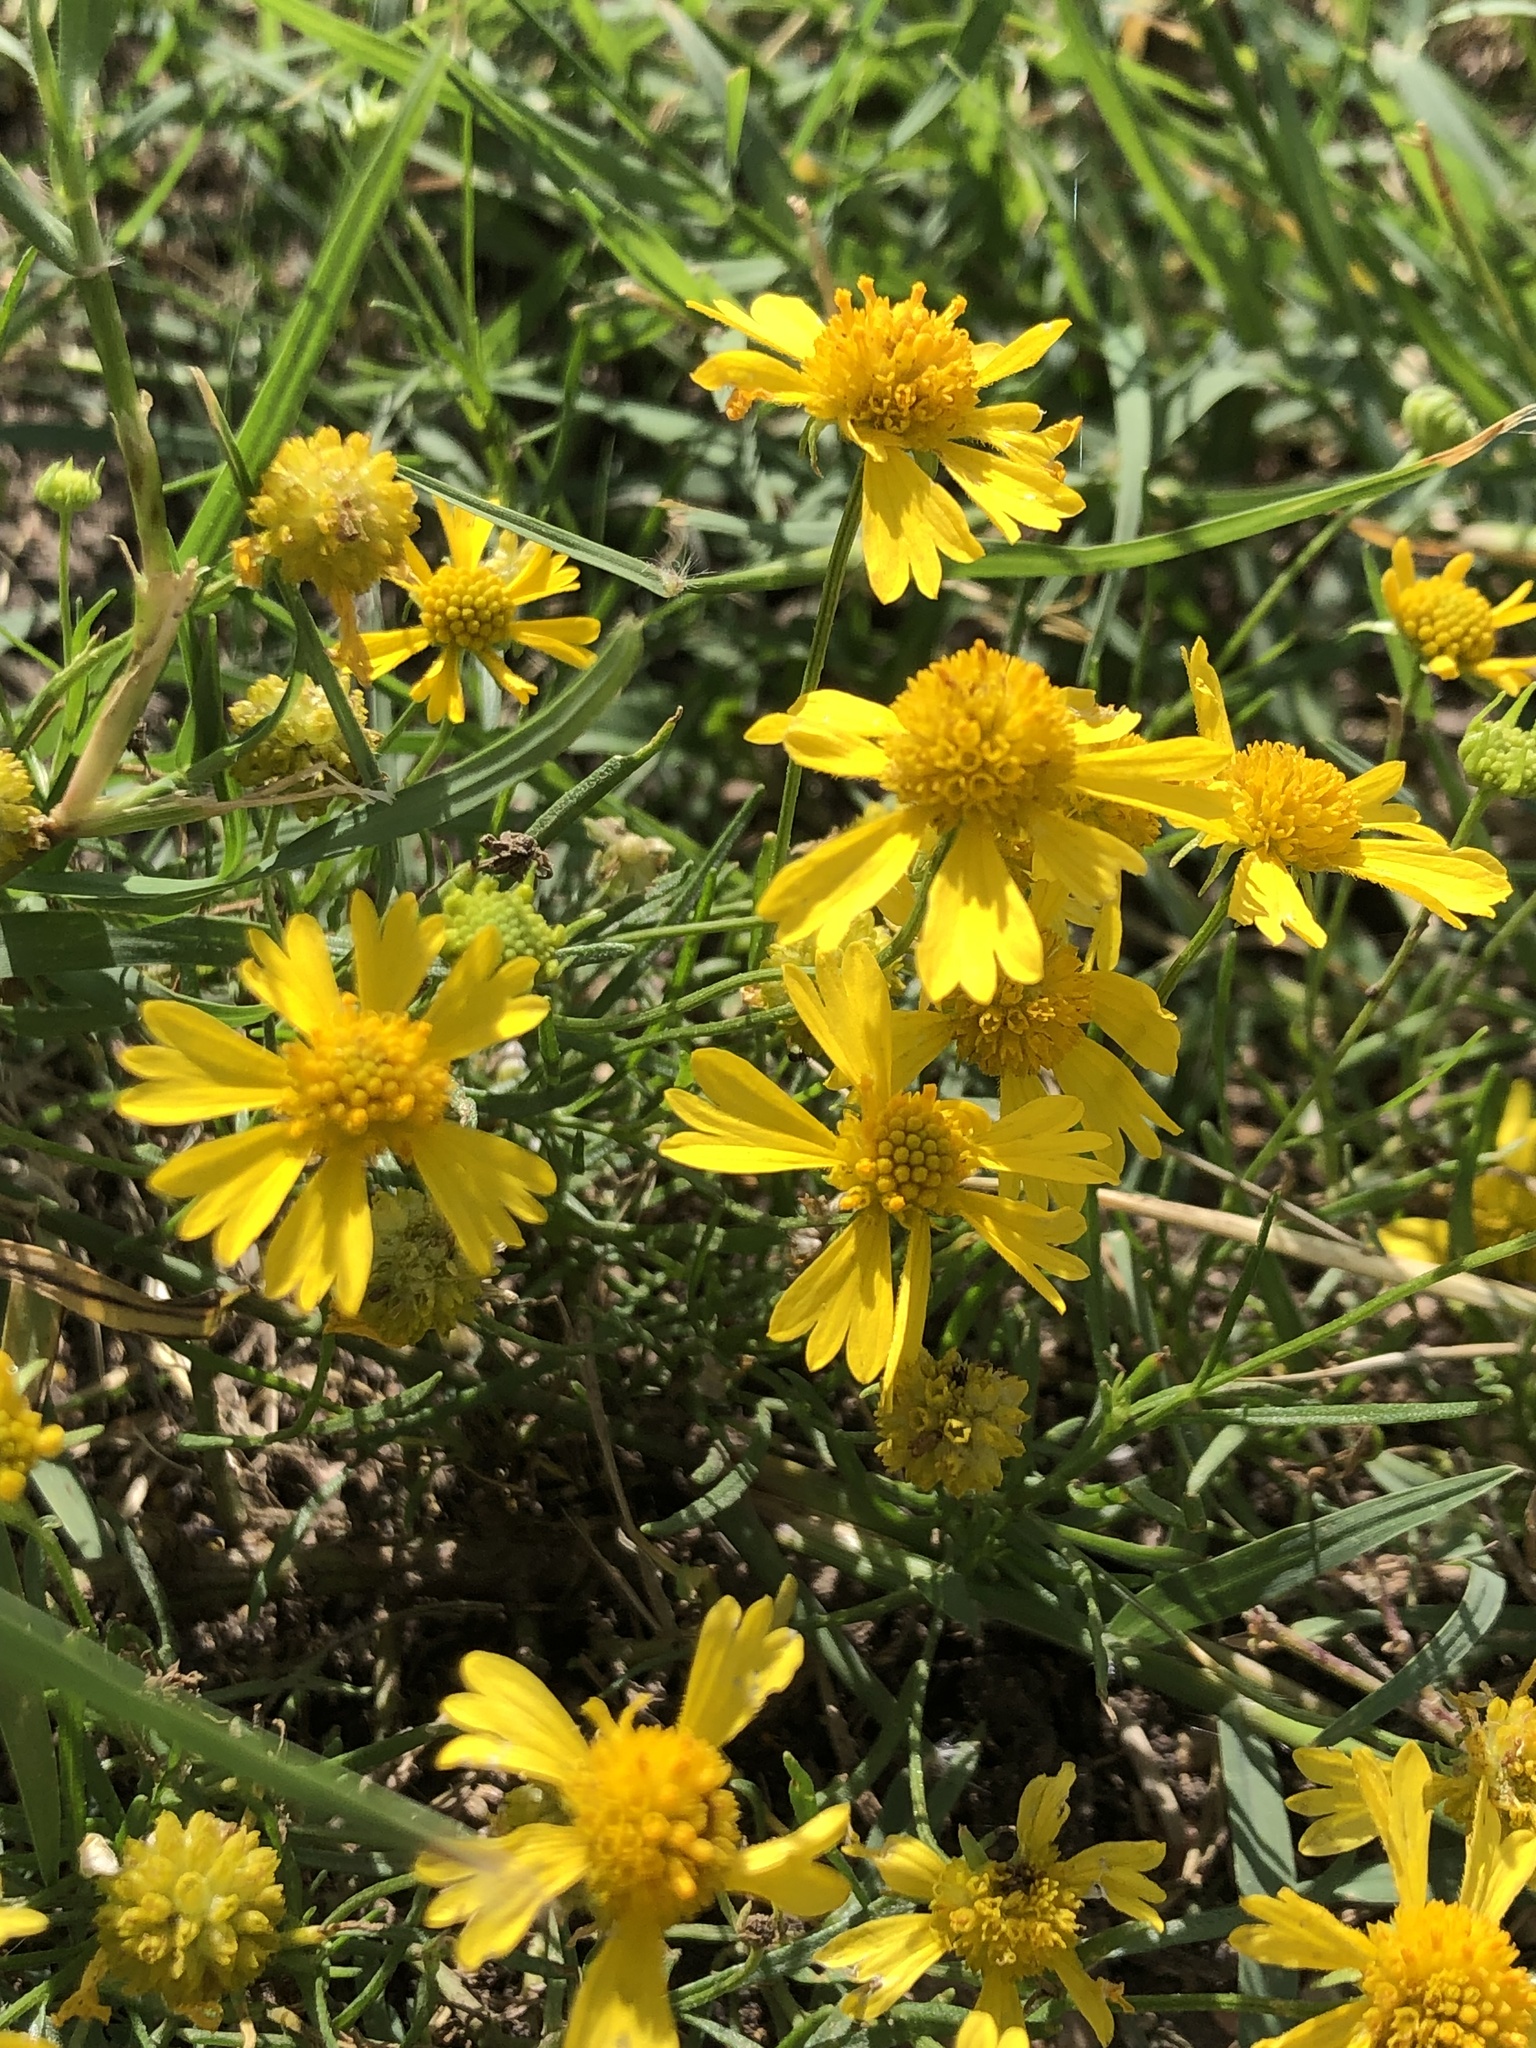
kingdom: Plantae
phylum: Tracheophyta
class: Magnoliopsida
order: Asterales
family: Asteraceae
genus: Helenium
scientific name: Helenium amarum
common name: Bitter sneezeweed
